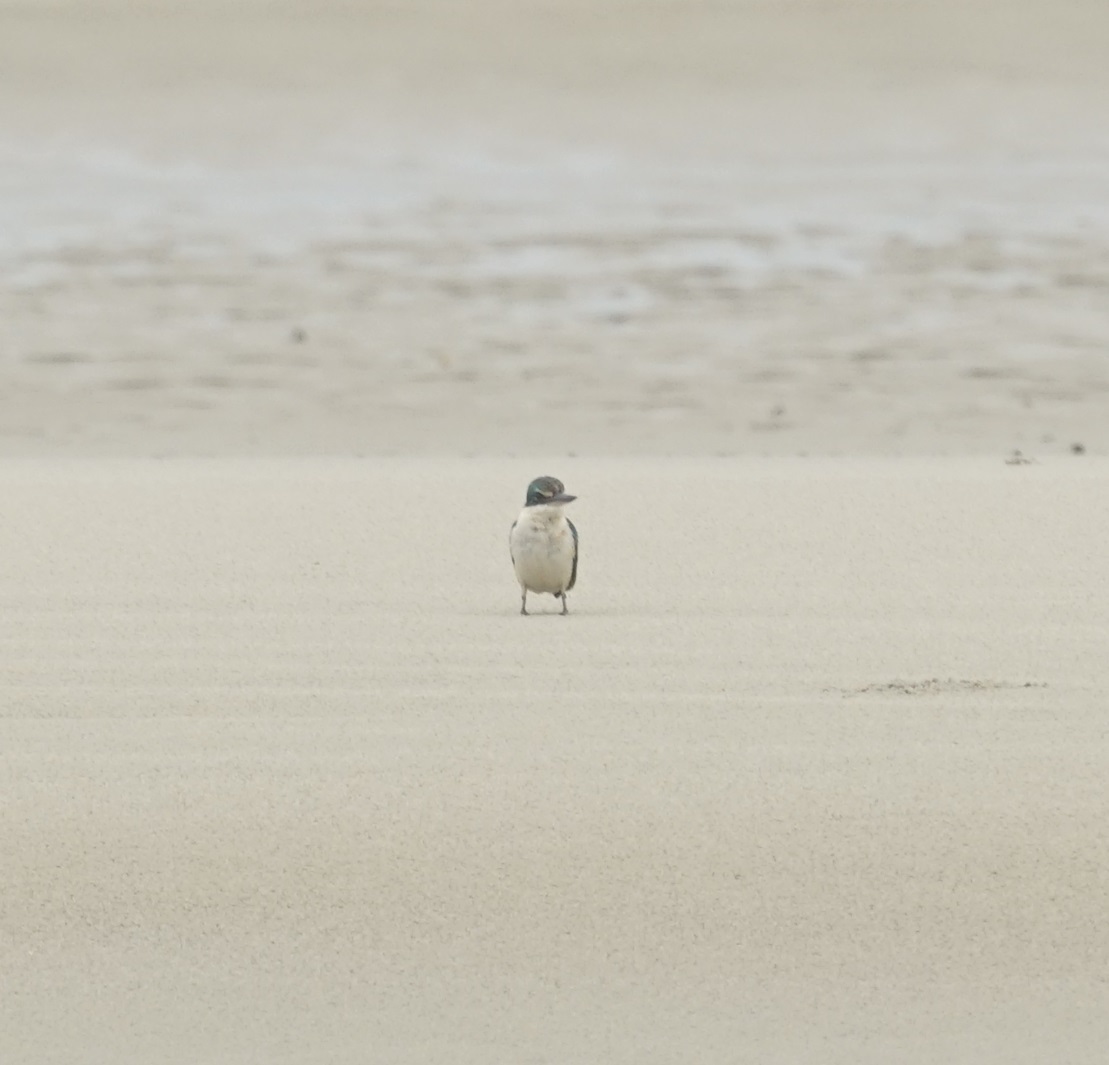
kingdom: Animalia
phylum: Chordata
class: Aves
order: Coraciiformes
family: Alcedinidae
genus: Todiramphus
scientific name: Todiramphus sanctus
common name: Sacred kingfisher
